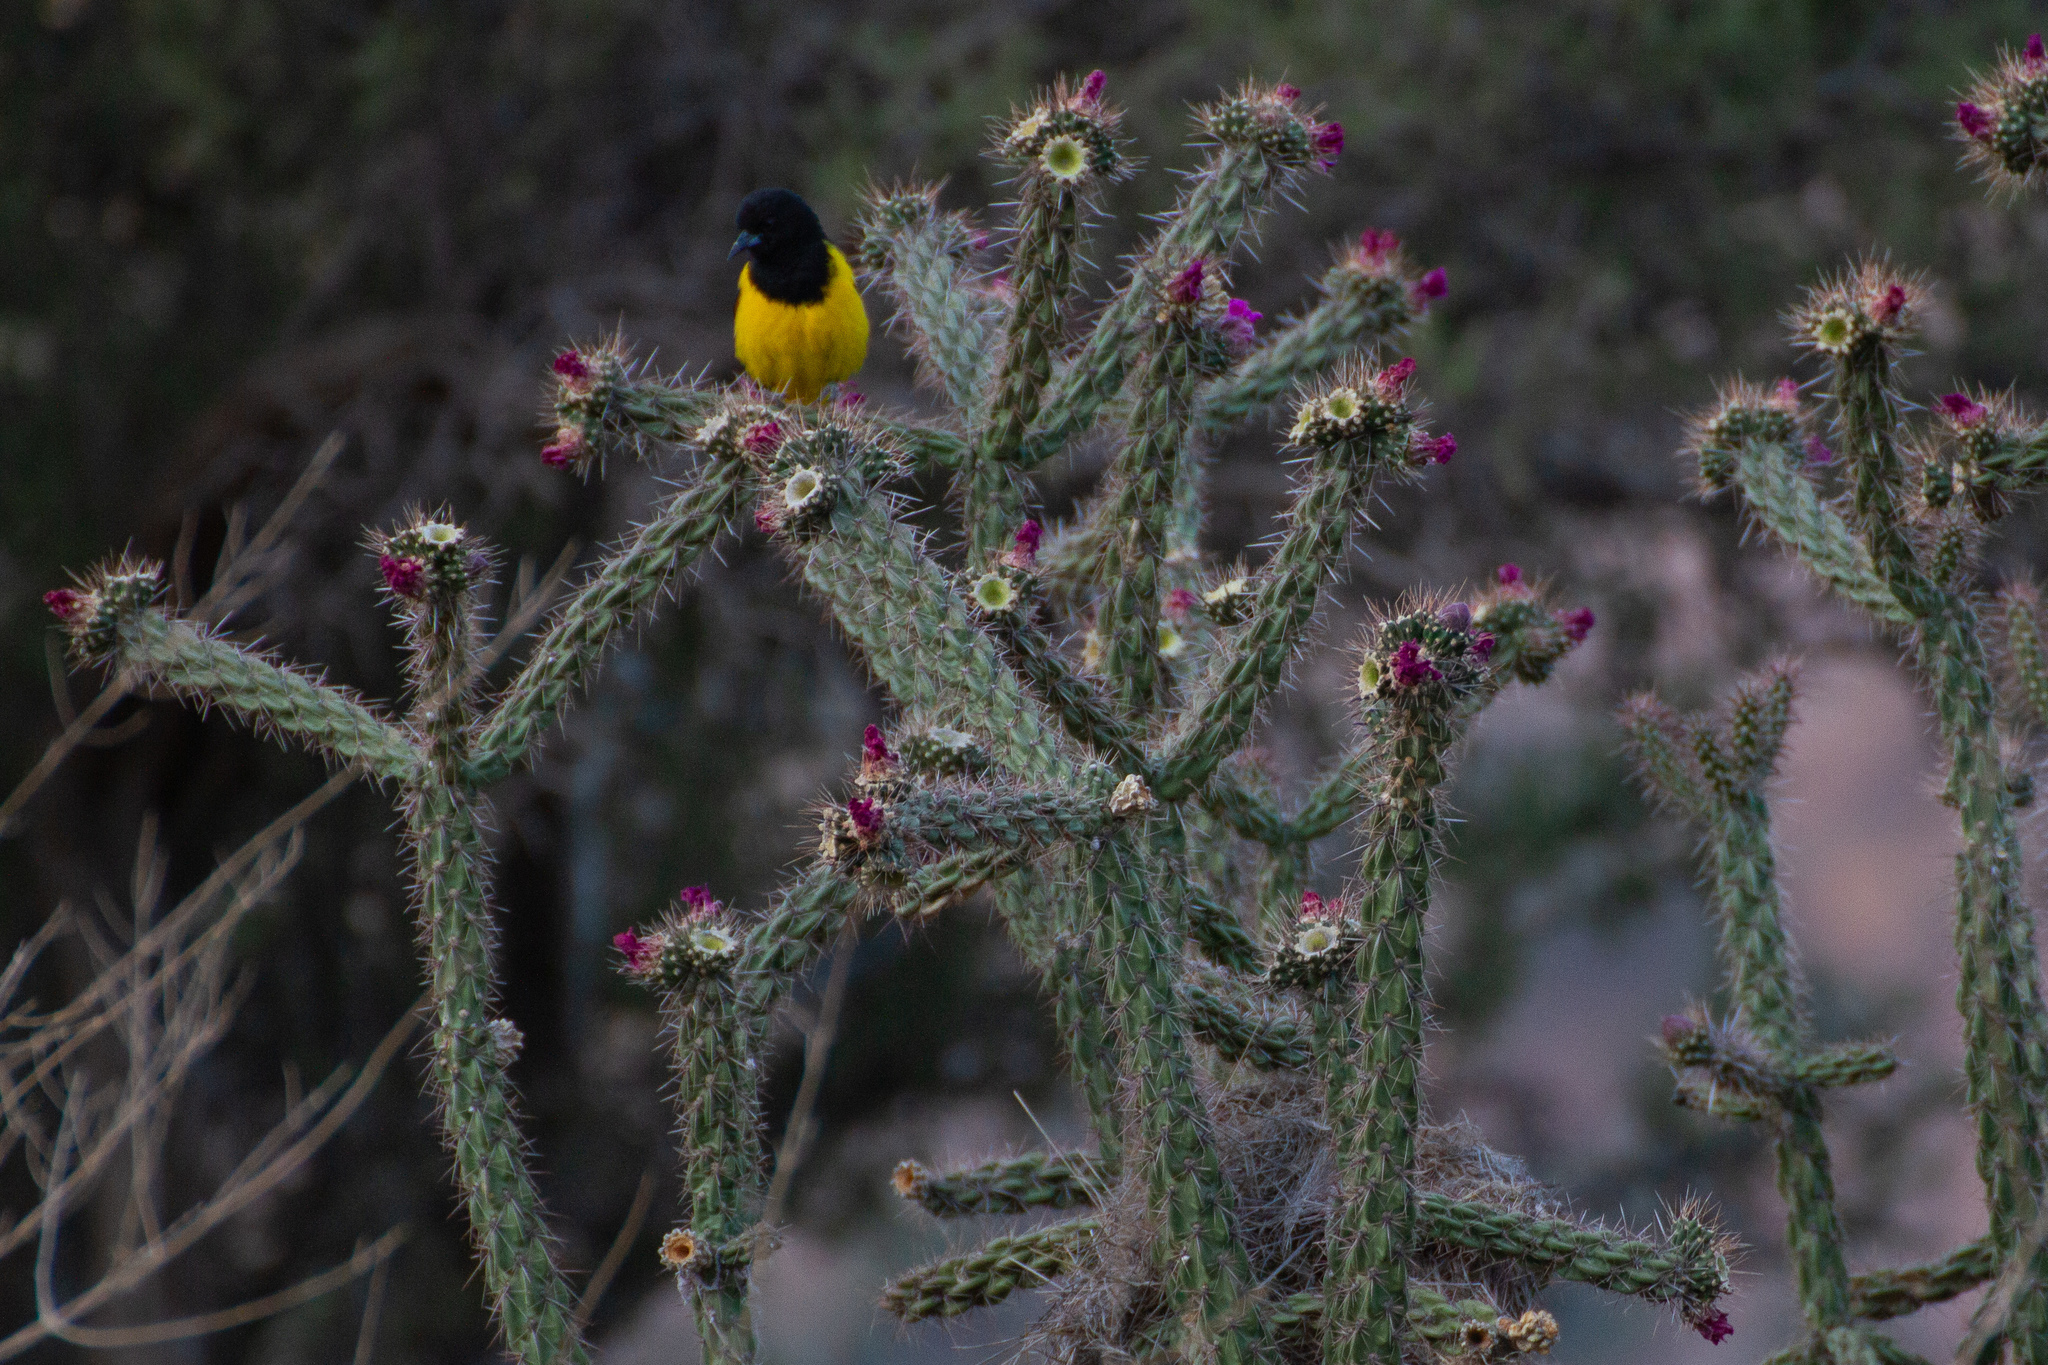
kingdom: Animalia
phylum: Chordata
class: Aves
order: Passeriformes
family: Icteridae
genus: Icterus
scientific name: Icterus parisorum
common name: Scott's oriole
